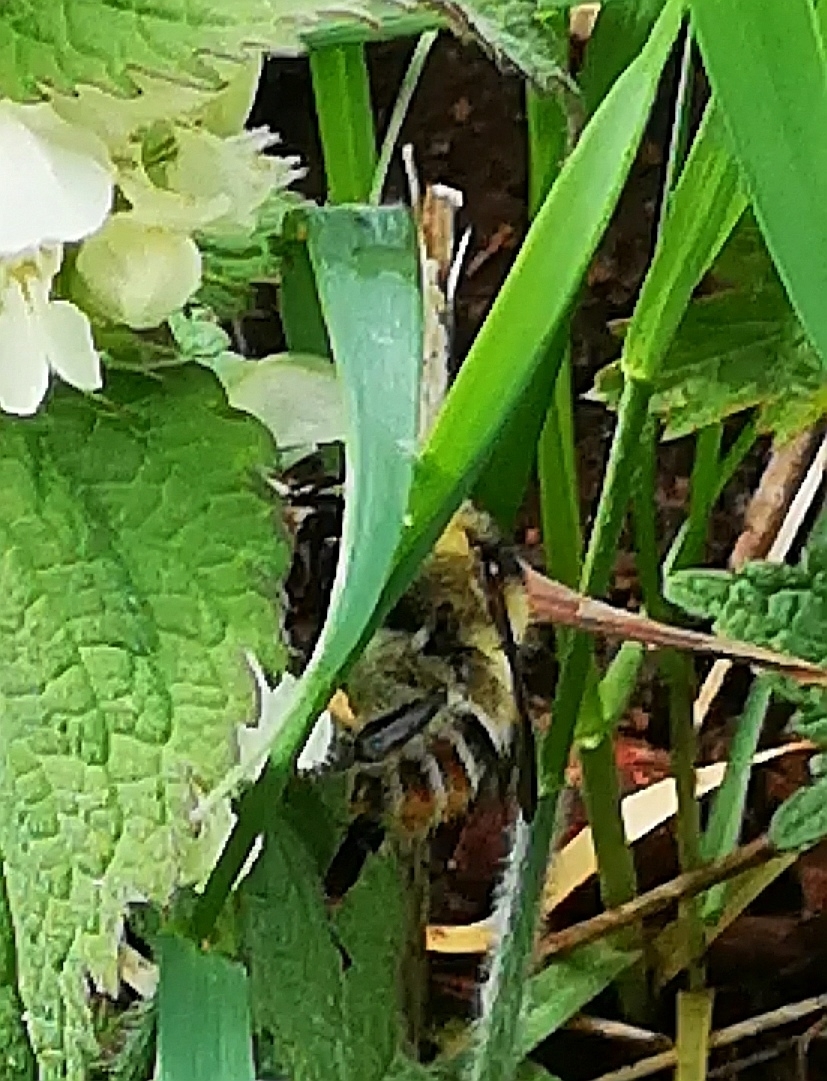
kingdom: Animalia
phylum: Arthropoda
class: Insecta
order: Hymenoptera
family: Apidae
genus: Bombus
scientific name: Bombus sylvarum
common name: Shrill carder bee
